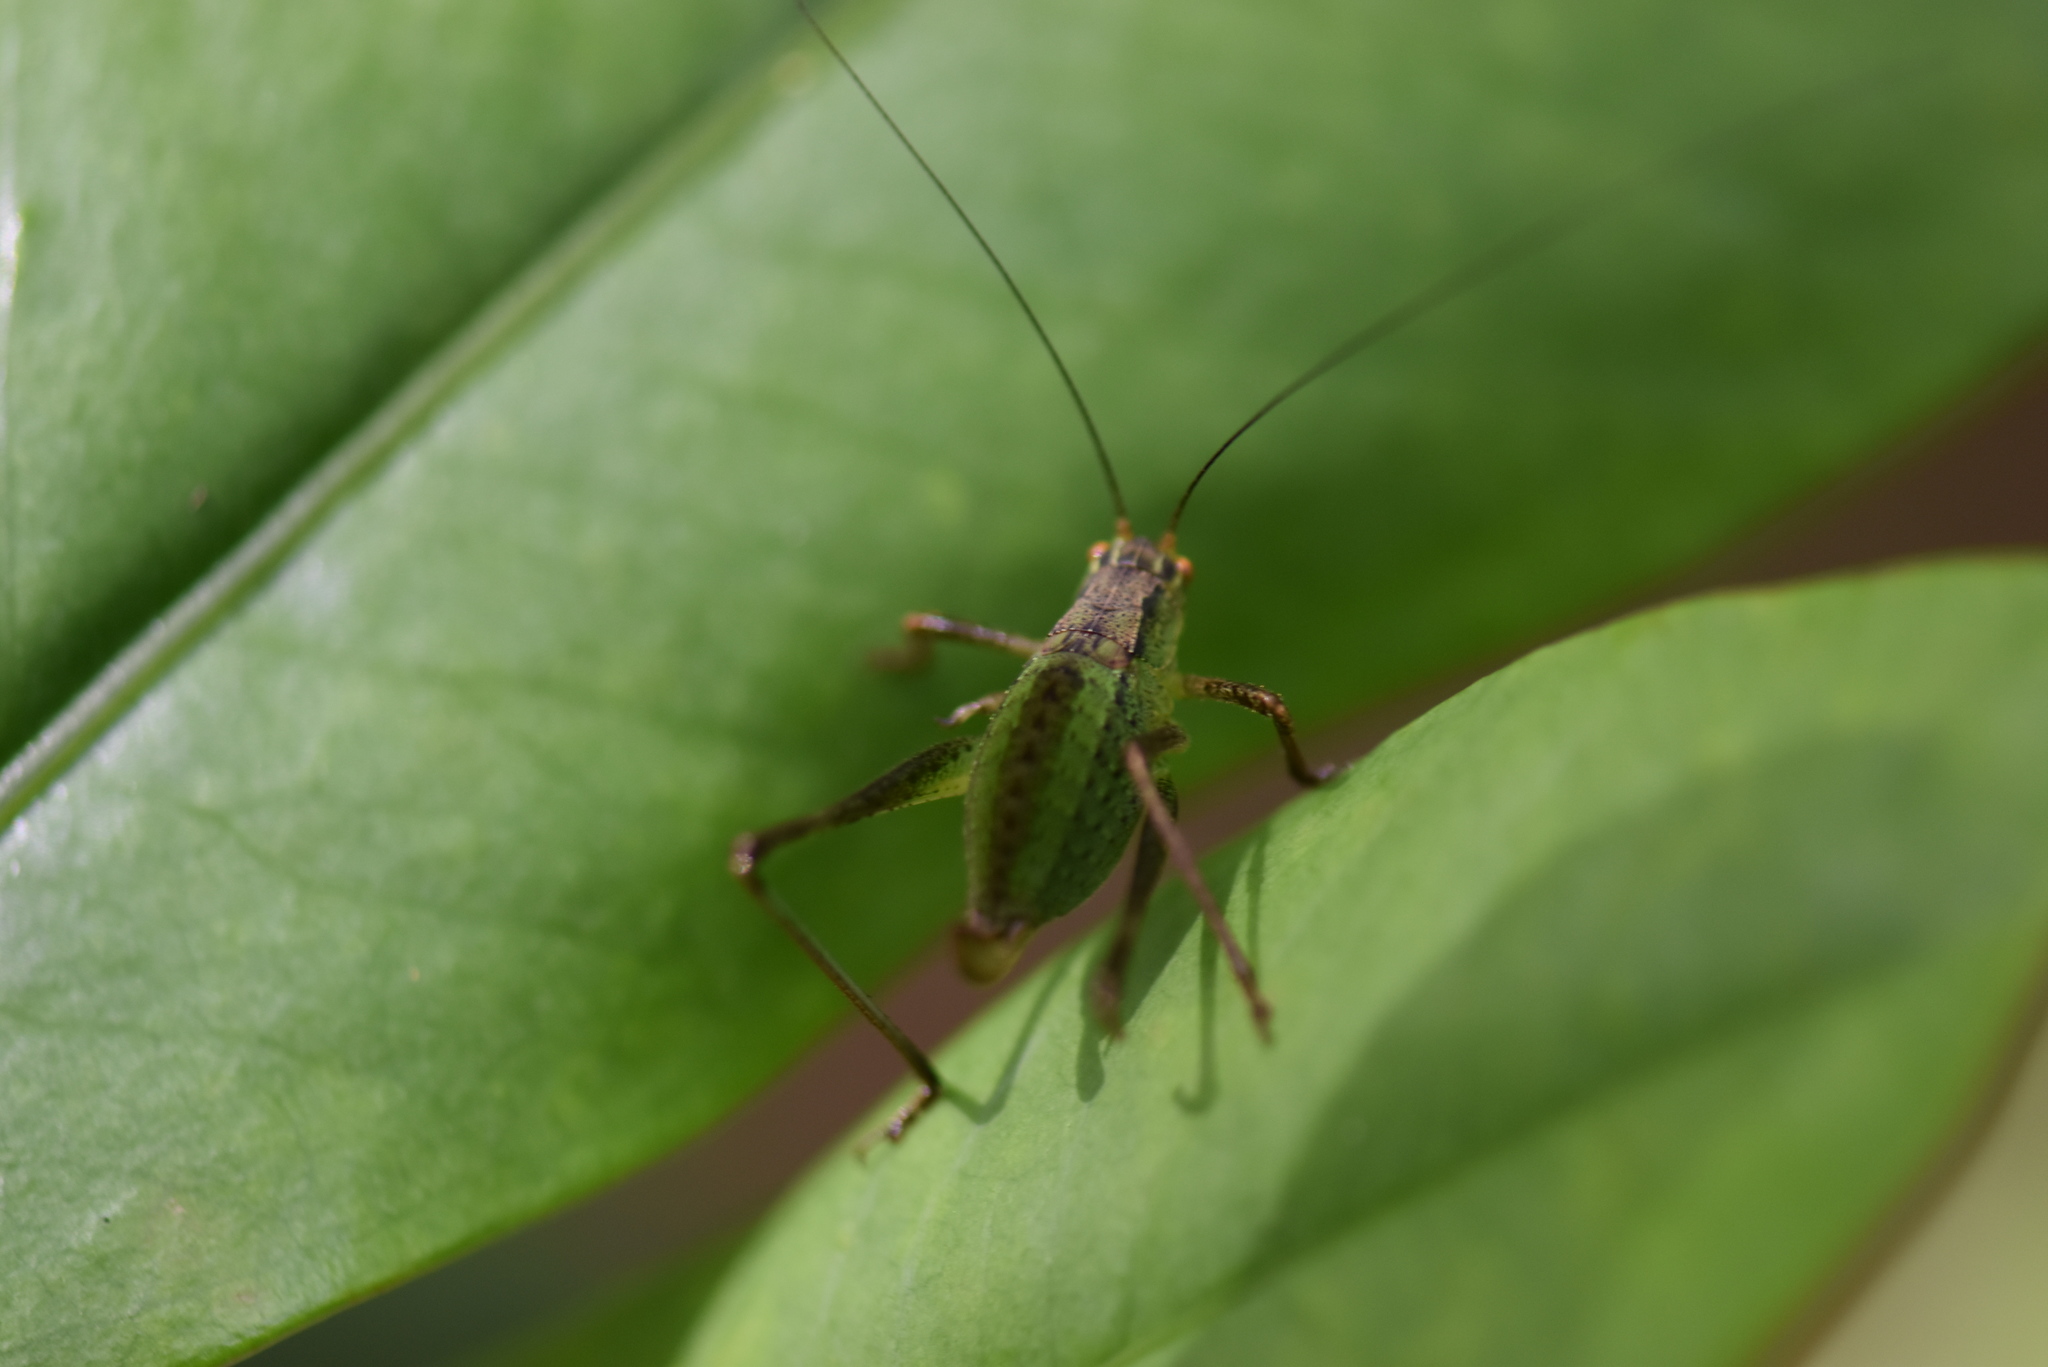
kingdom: Animalia
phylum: Arthropoda
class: Insecta
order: Orthoptera
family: Tettigoniidae
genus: Anisophya
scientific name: Anisophya melanochloris
